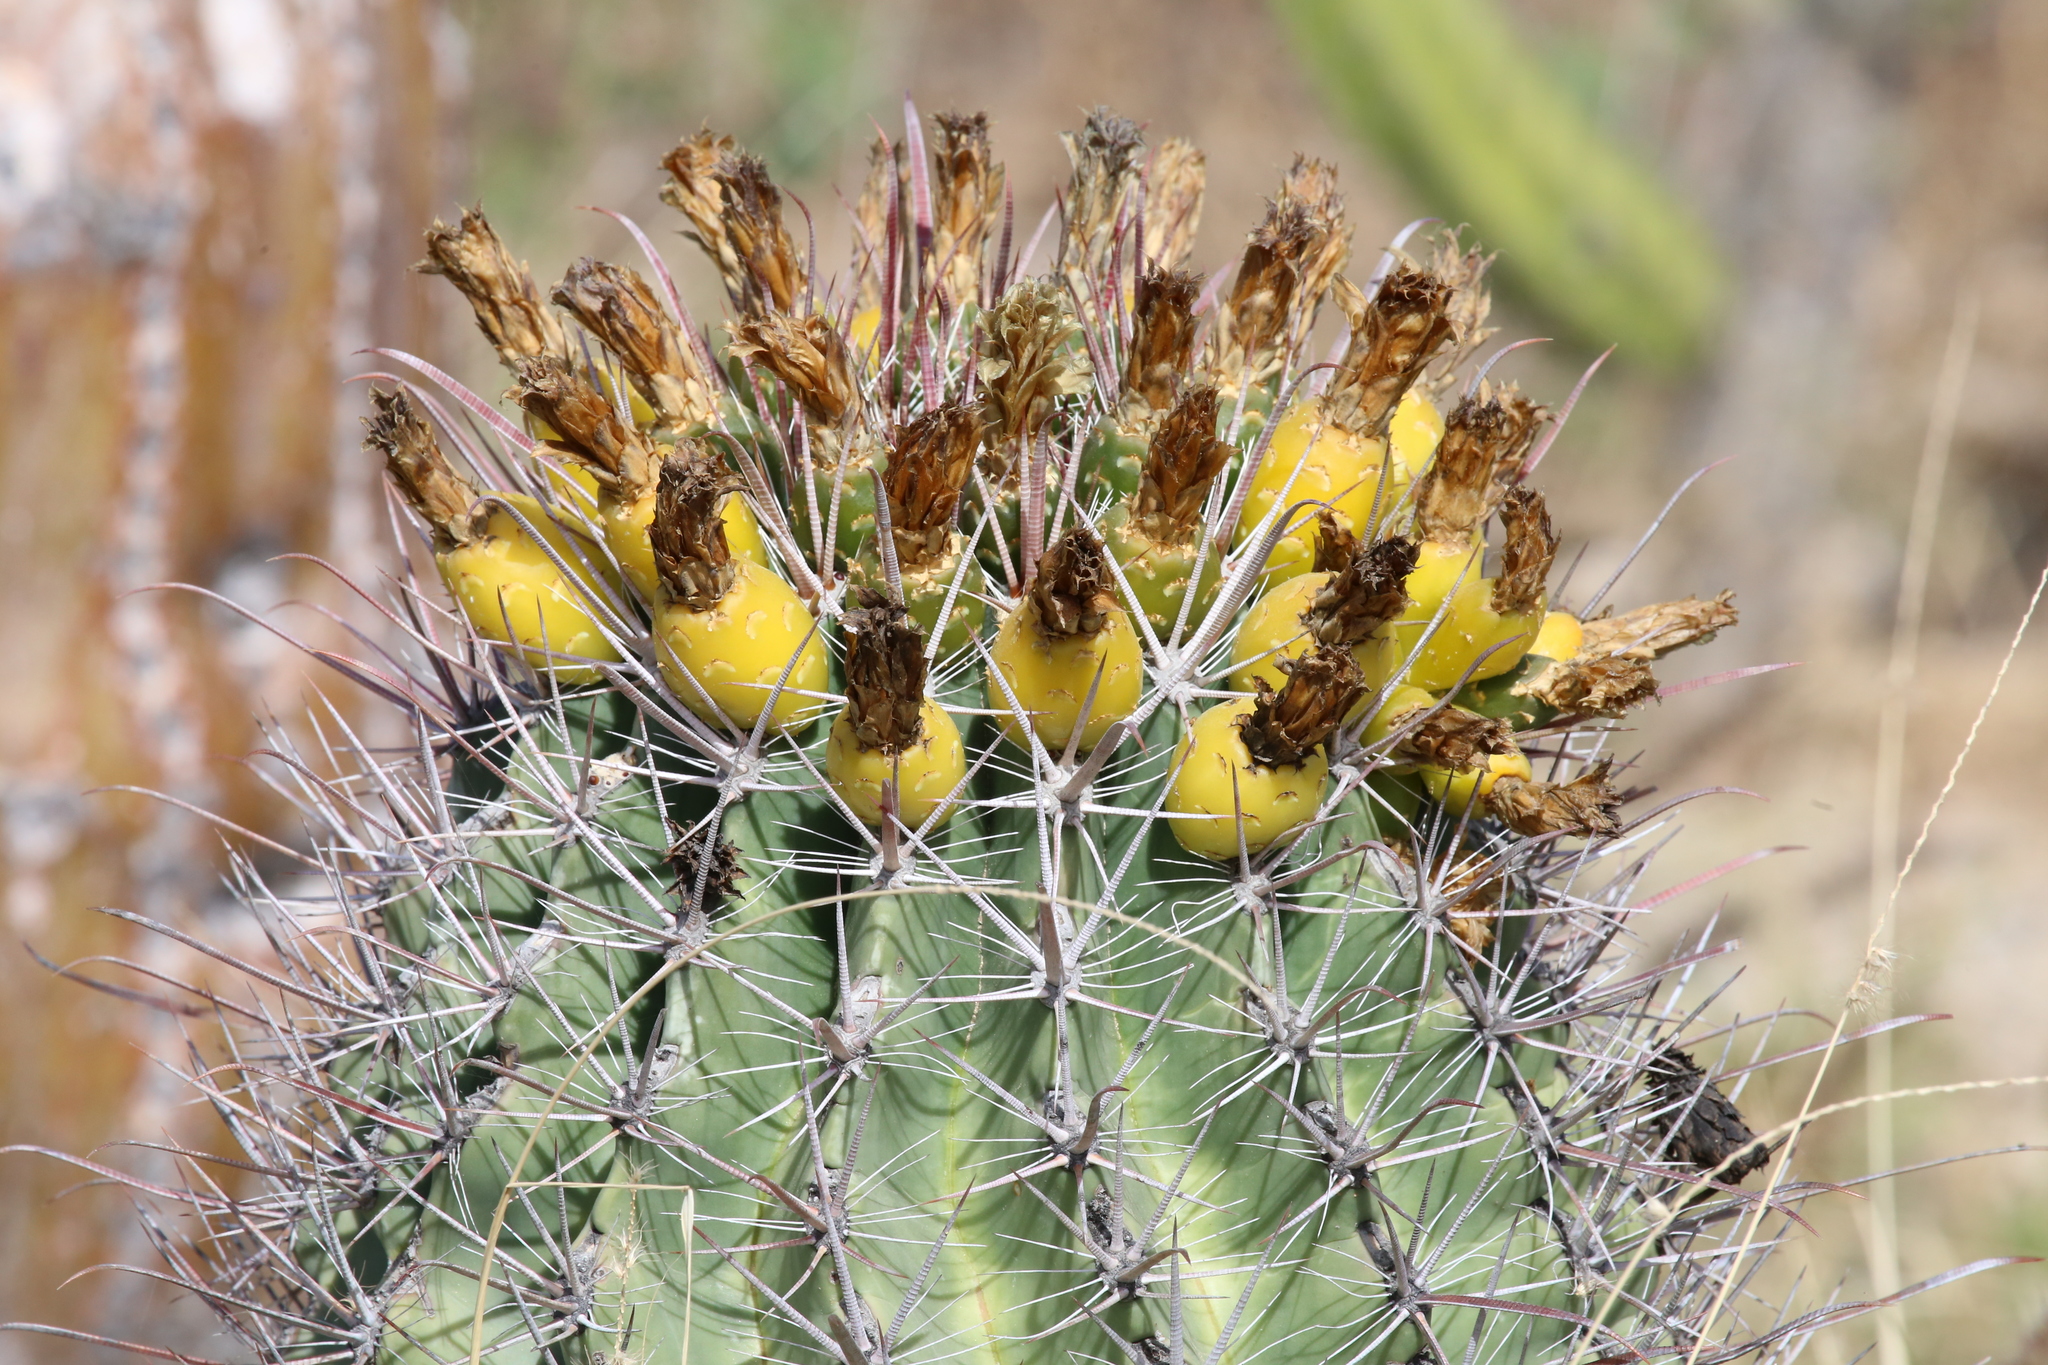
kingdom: Plantae
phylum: Tracheophyta
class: Magnoliopsida
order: Caryophyllales
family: Cactaceae
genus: Ferocactus
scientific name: Ferocactus townsendianus
